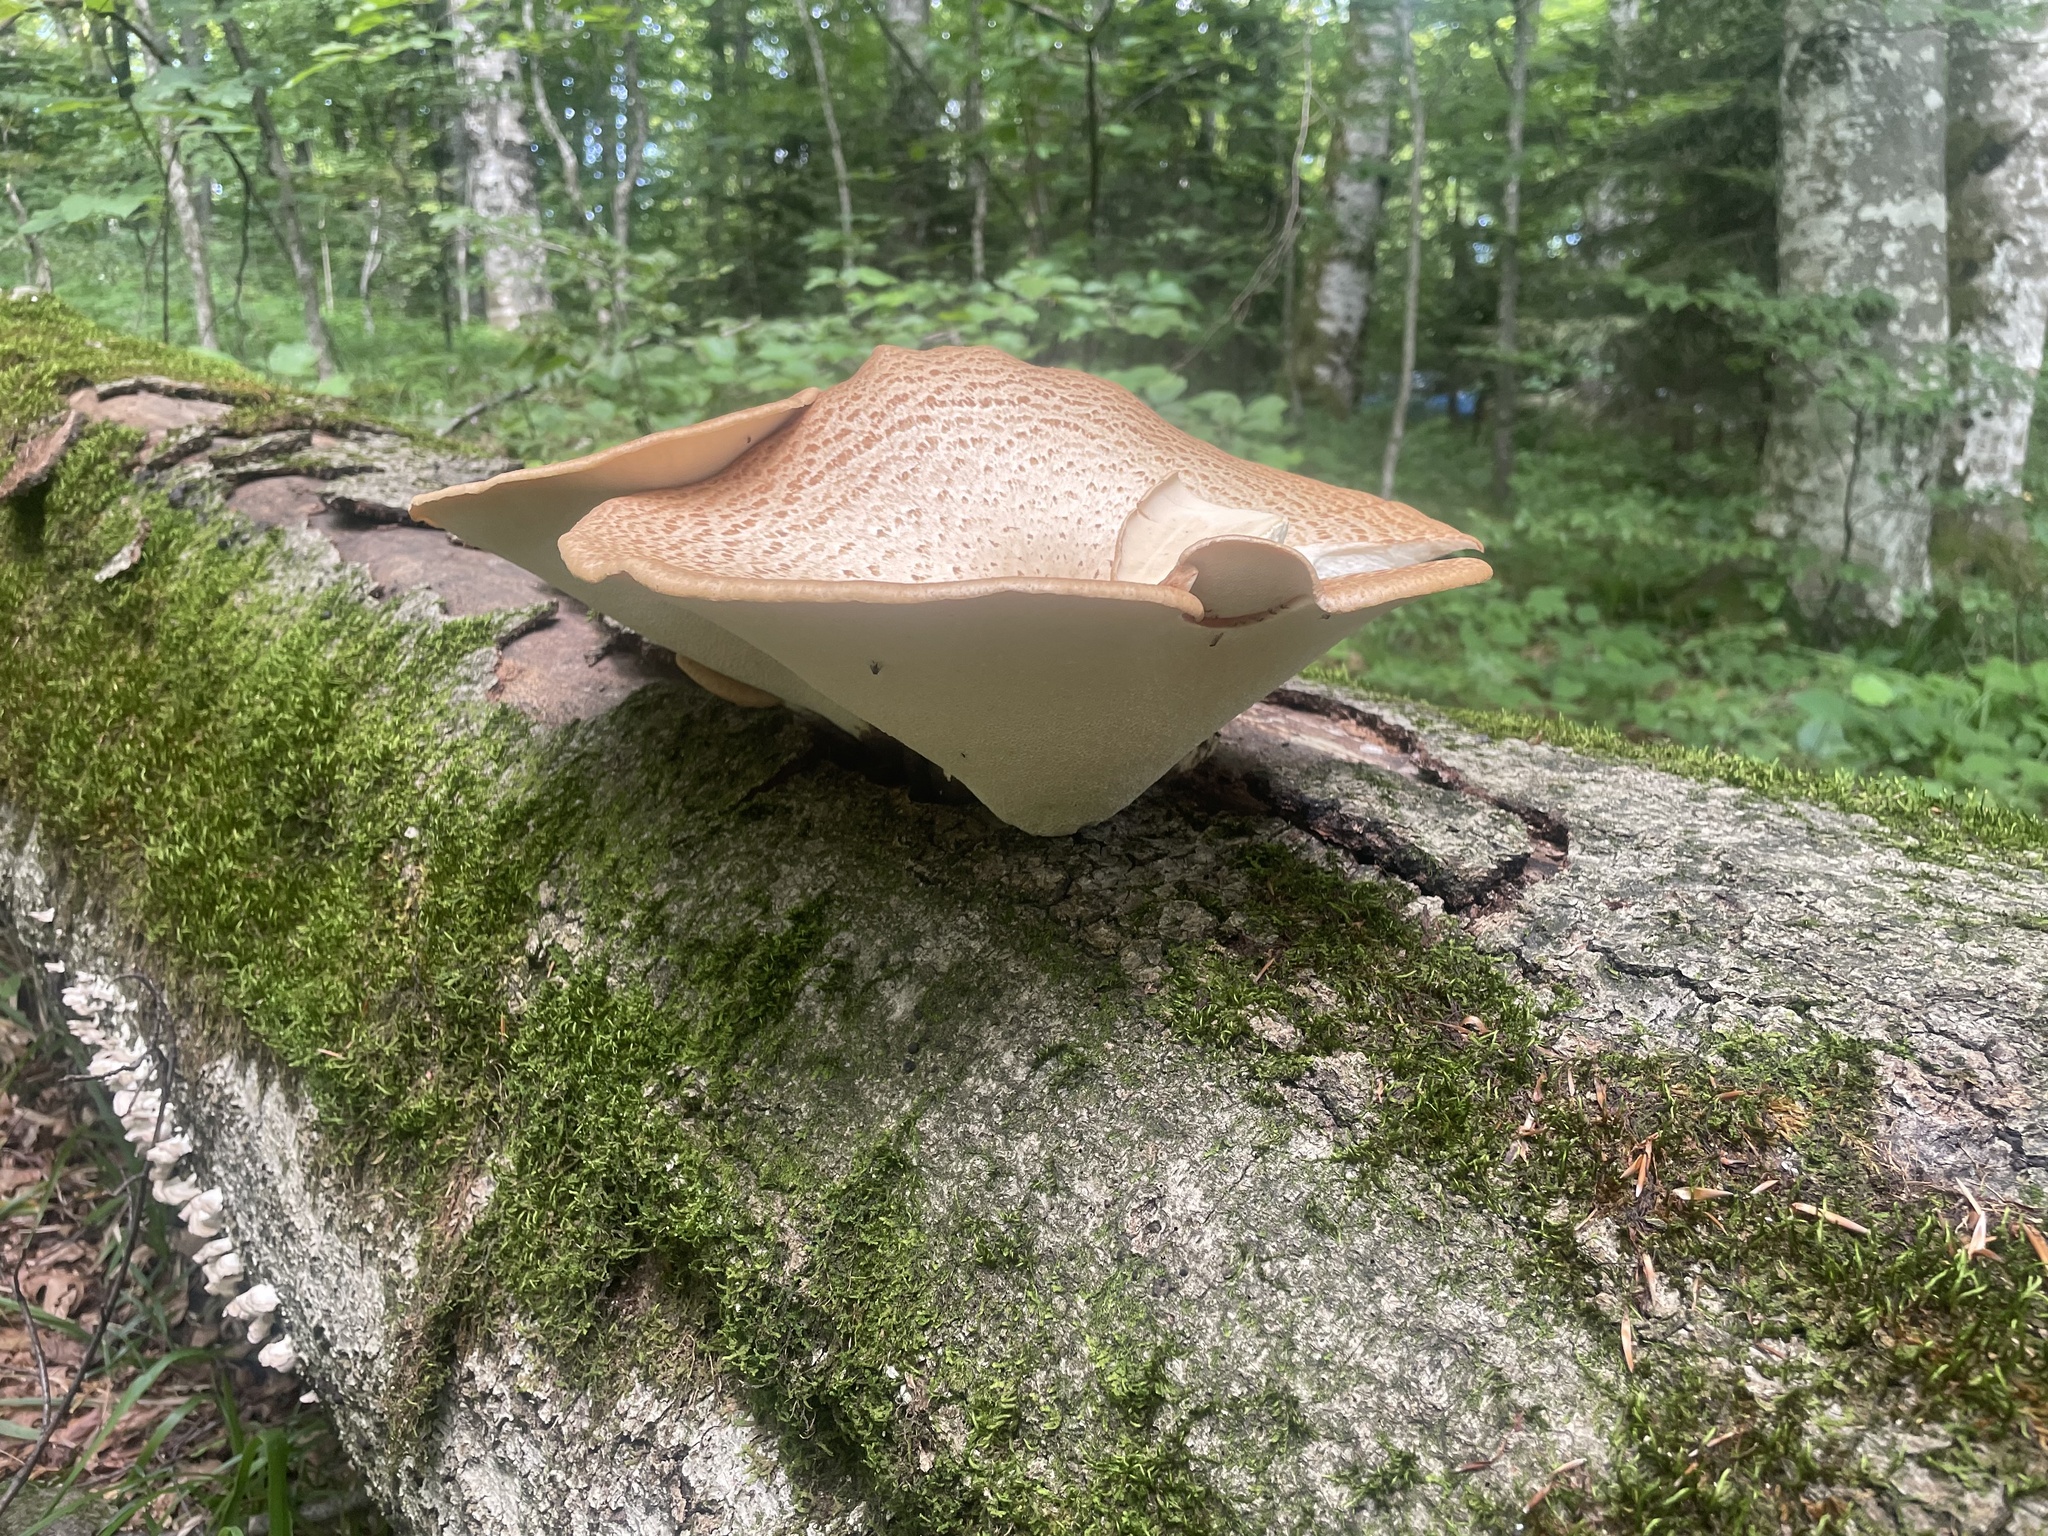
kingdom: Fungi
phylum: Basidiomycota
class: Agaricomycetes
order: Polyporales
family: Polyporaceae
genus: Cerioporus
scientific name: Cerioporus squamosus
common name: Dryad's saddle
